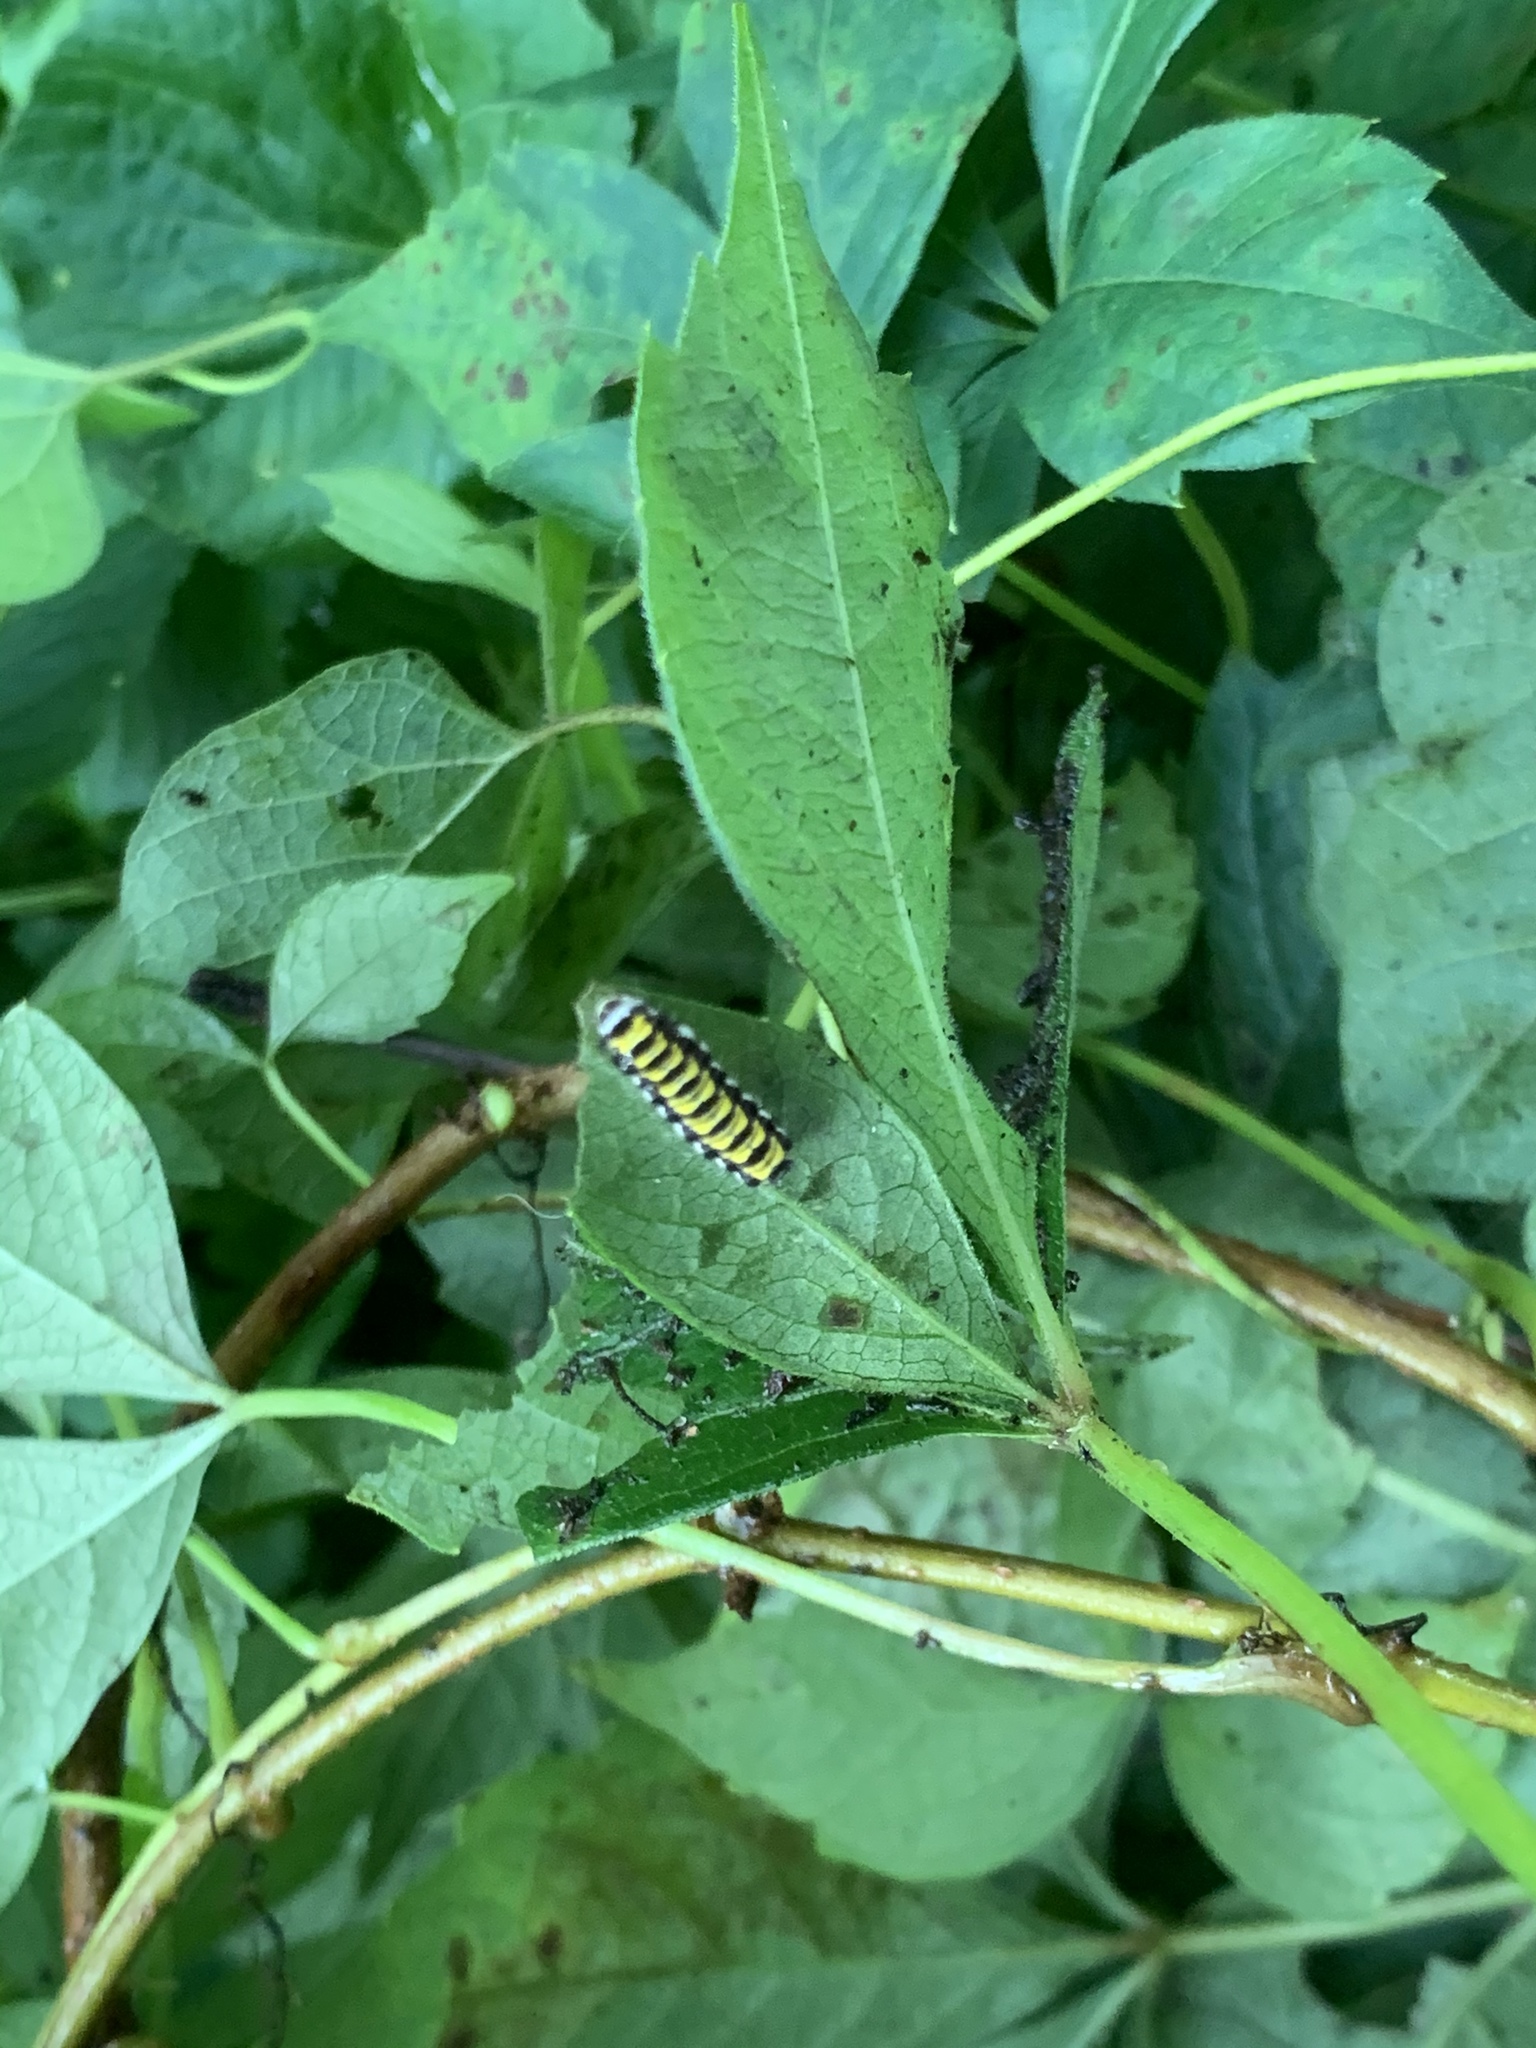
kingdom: Animalia
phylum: Arthropoda
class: Insecta
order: Lepidoptera
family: Zygaenidae
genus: Harrisina
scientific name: Harrisina americana
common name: Grapeleaf skeletonizer moth
